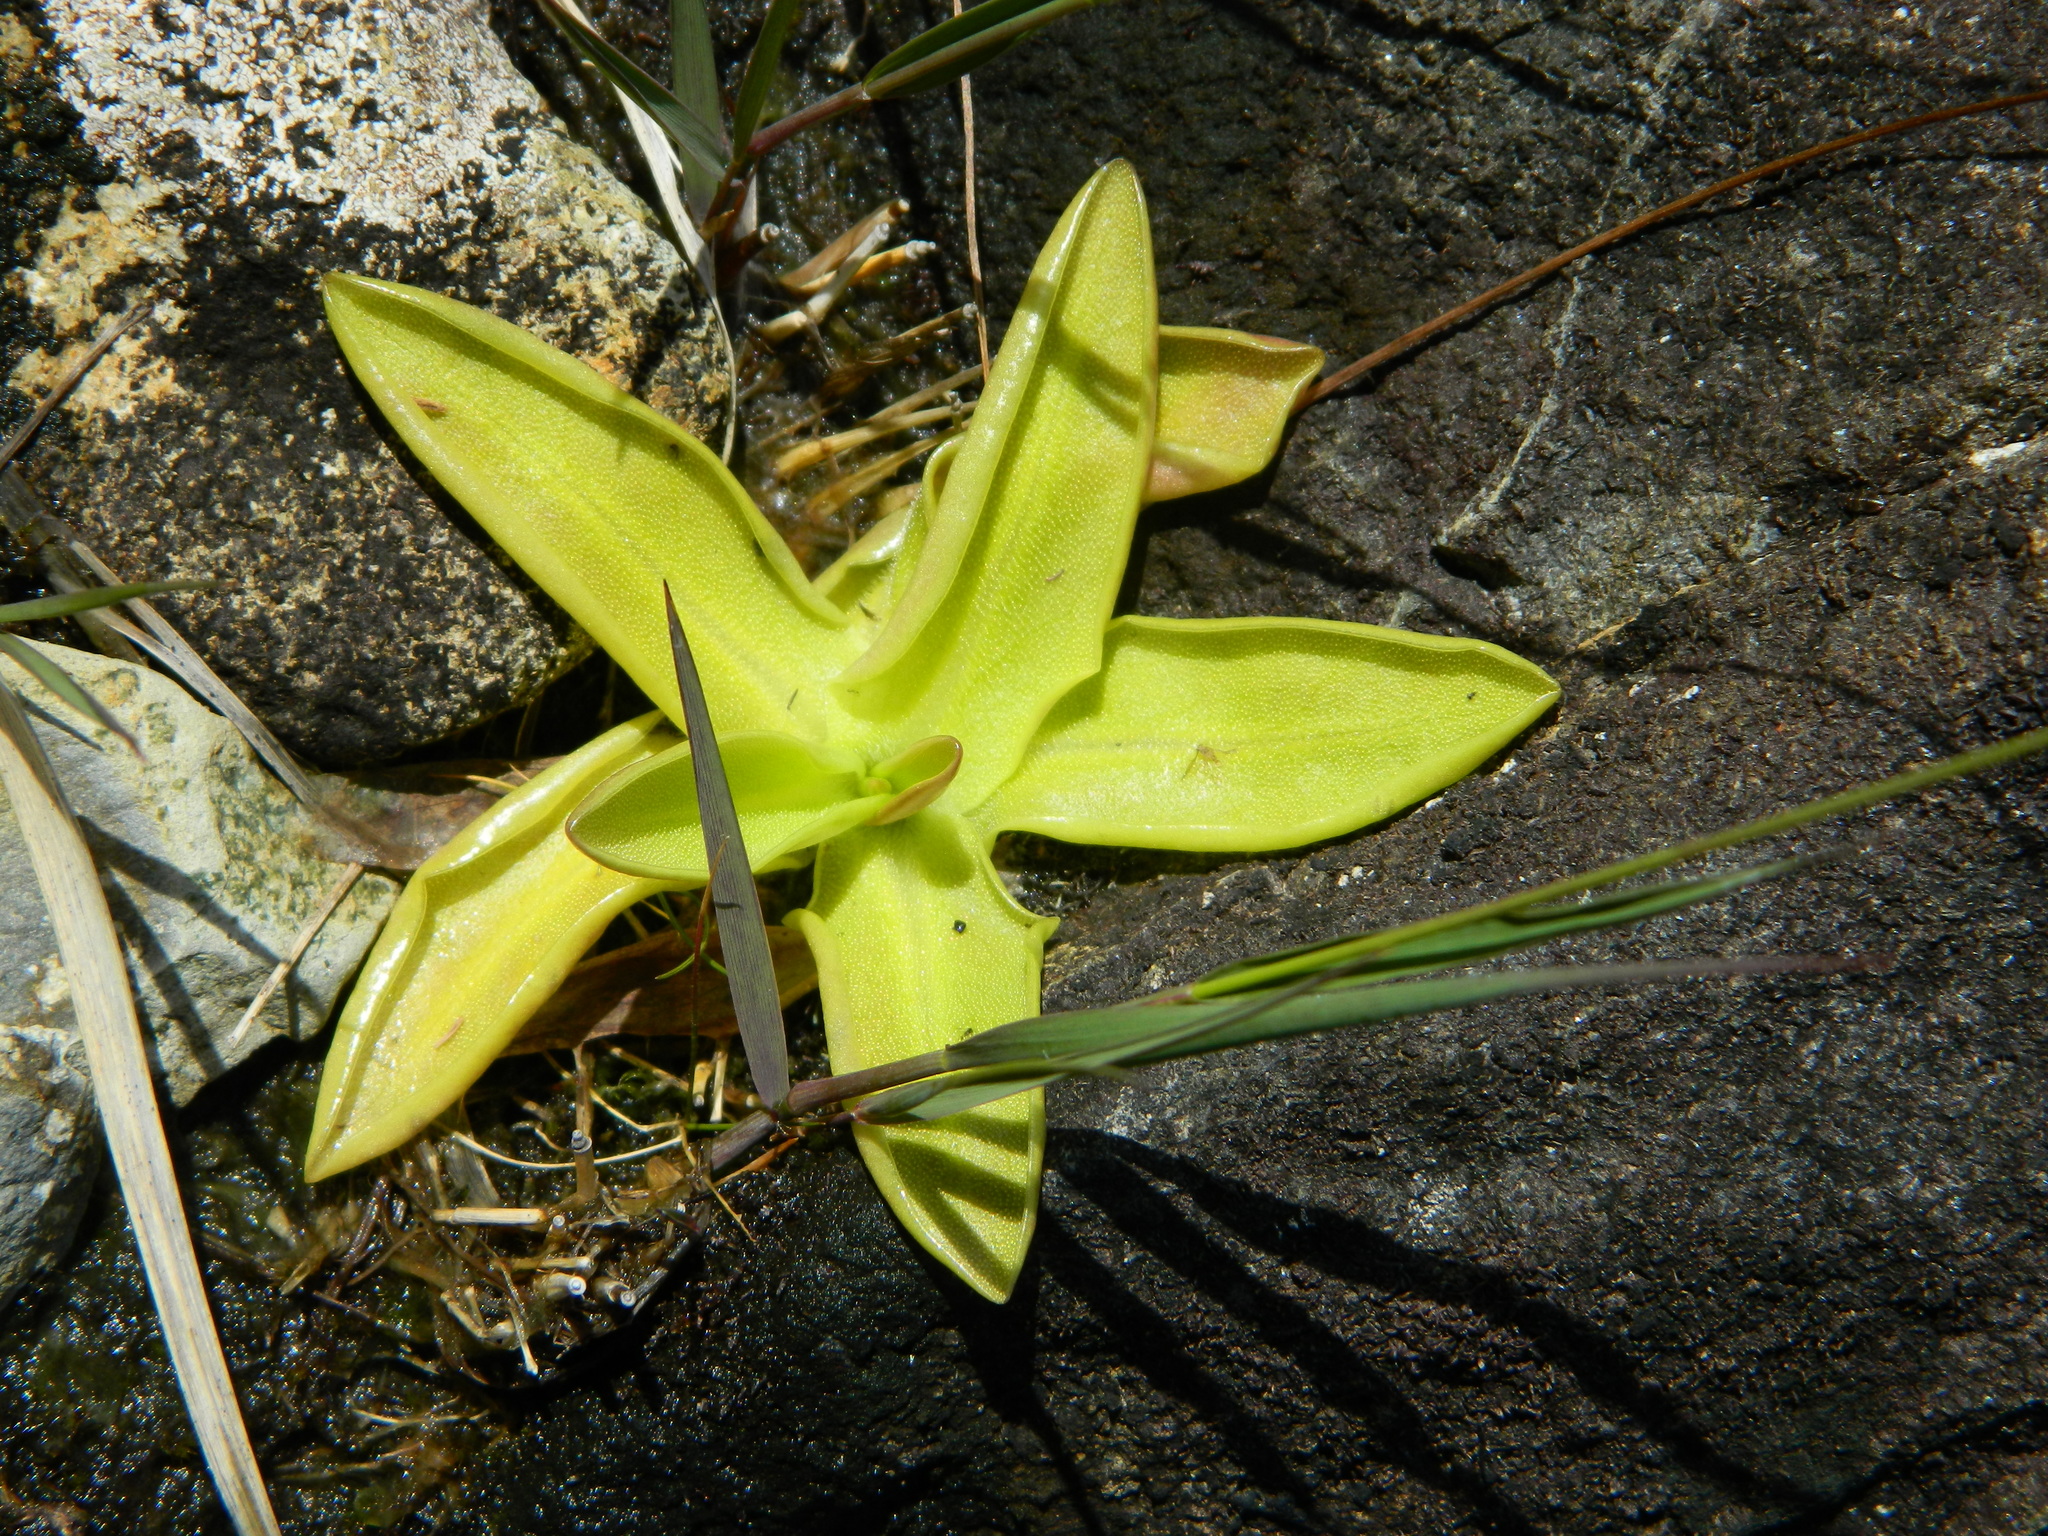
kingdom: Plantae
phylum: Tracheophyta
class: Magnoliopsida
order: Lamiales
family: Lentibulariaceae
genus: Pinguicula
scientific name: Pinguicula vulgaris
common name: Common butterwort
